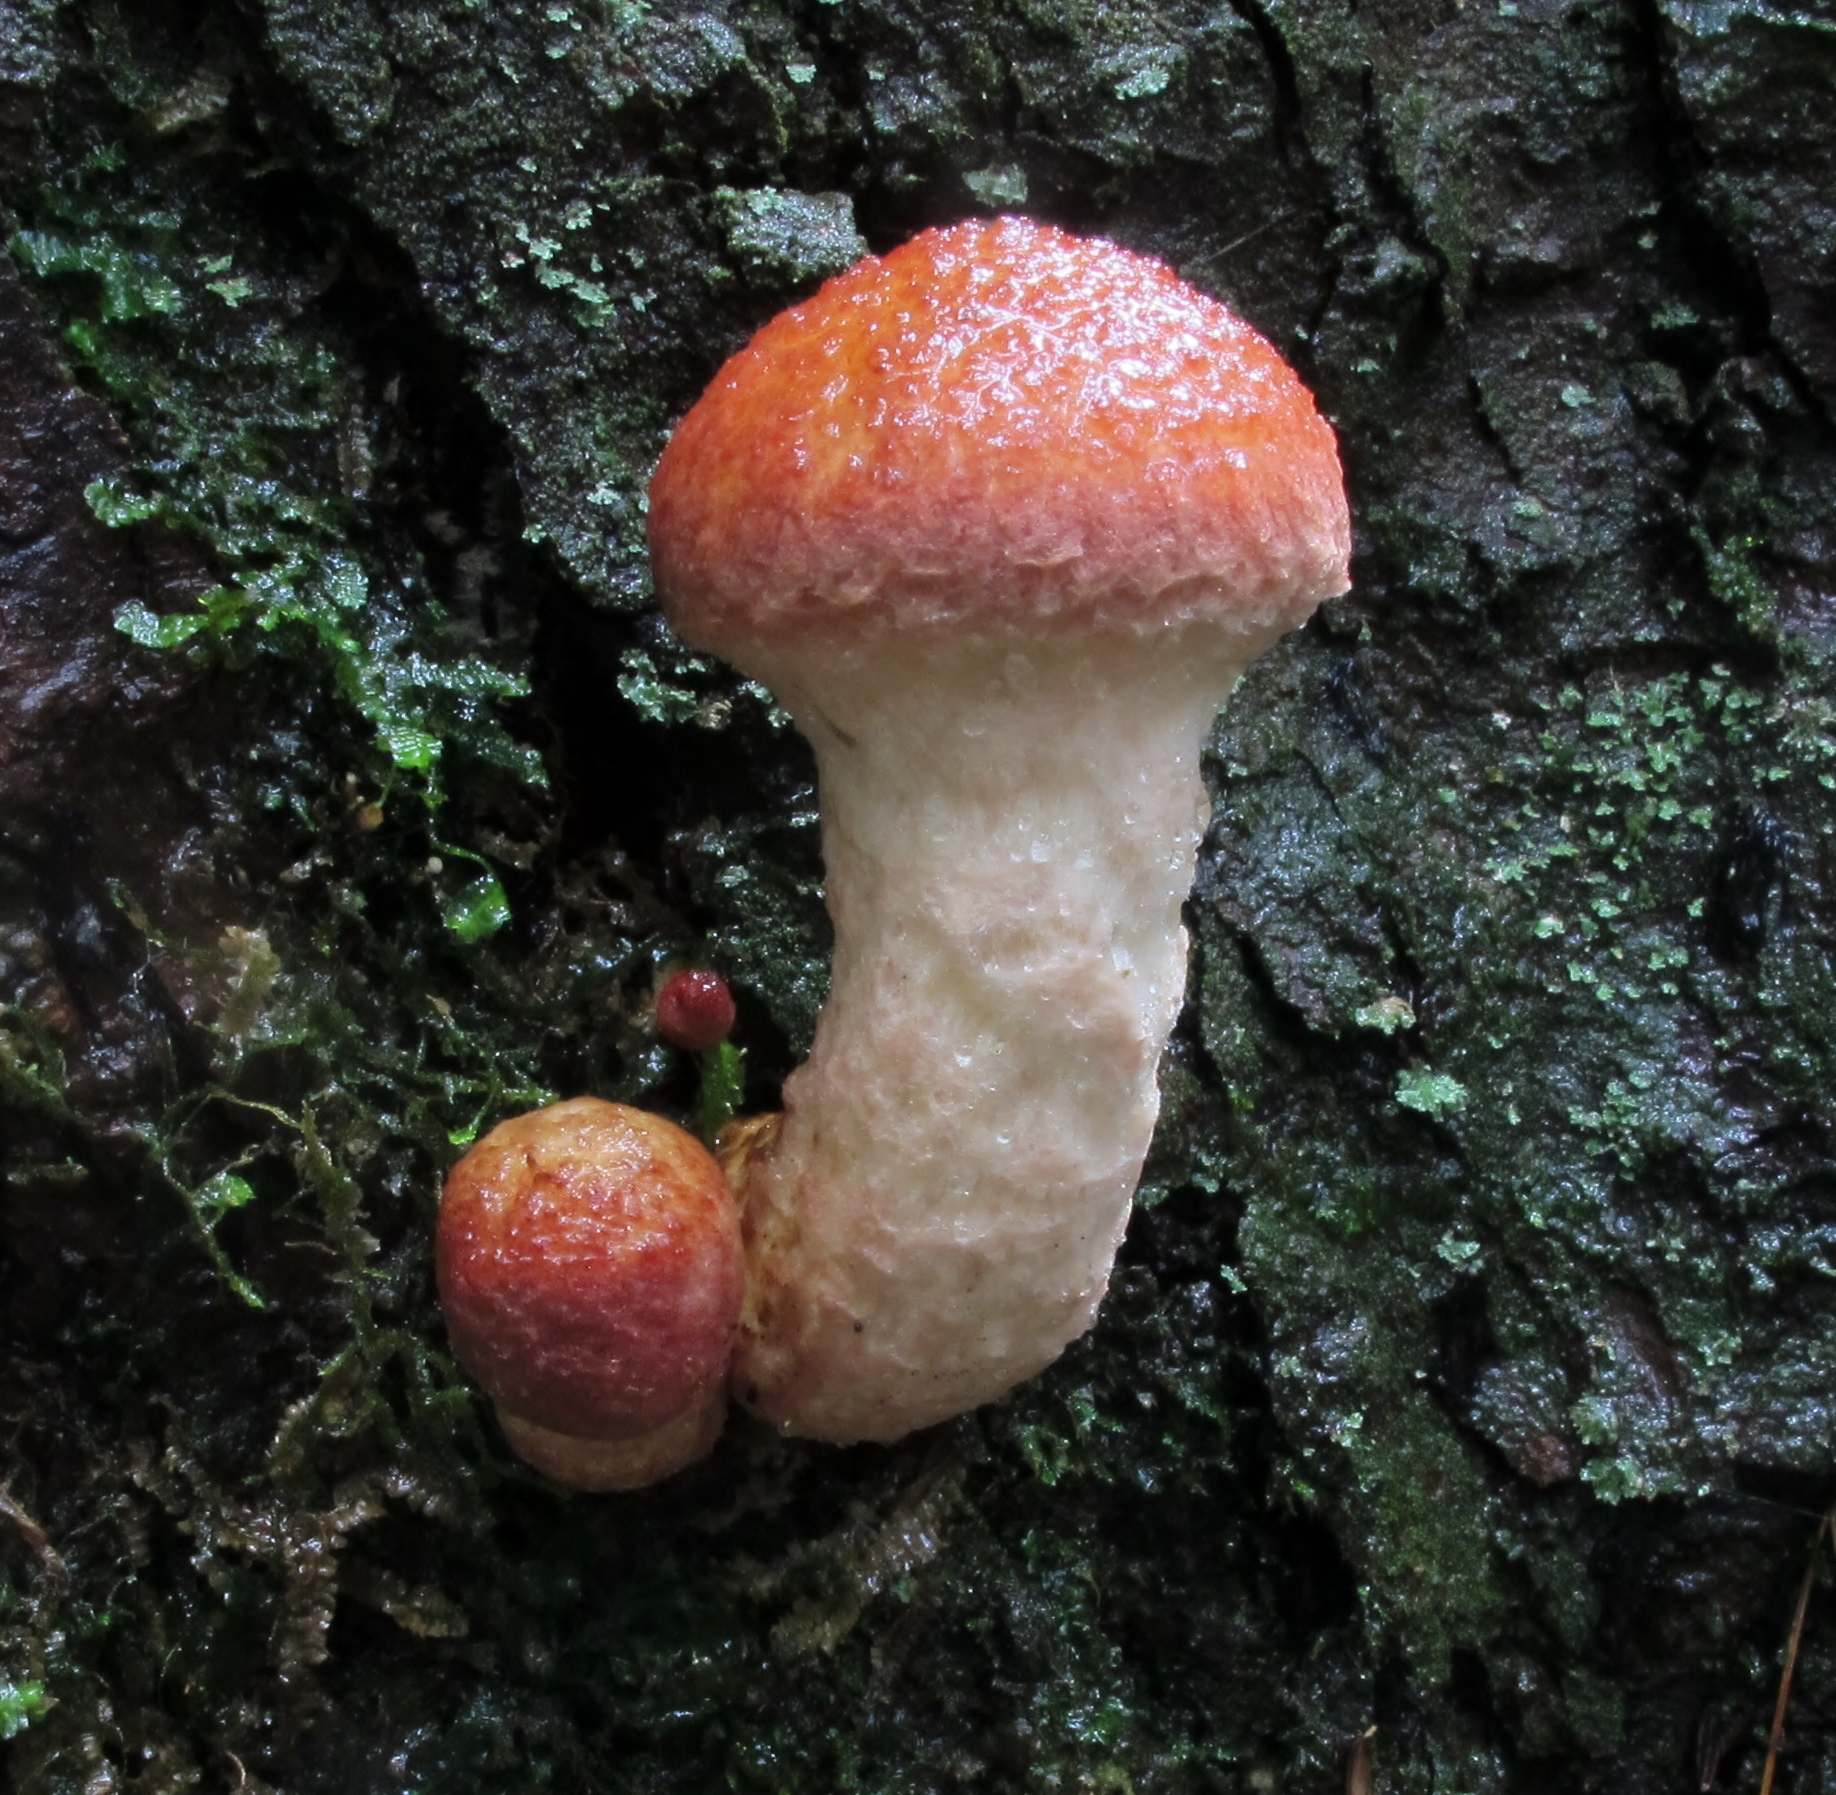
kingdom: Fungi
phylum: Basidiomycota
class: Agaricomycetes
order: Boletales
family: Suillaceae
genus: Suillus
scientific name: Suillus spraguei
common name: Painted suillus
